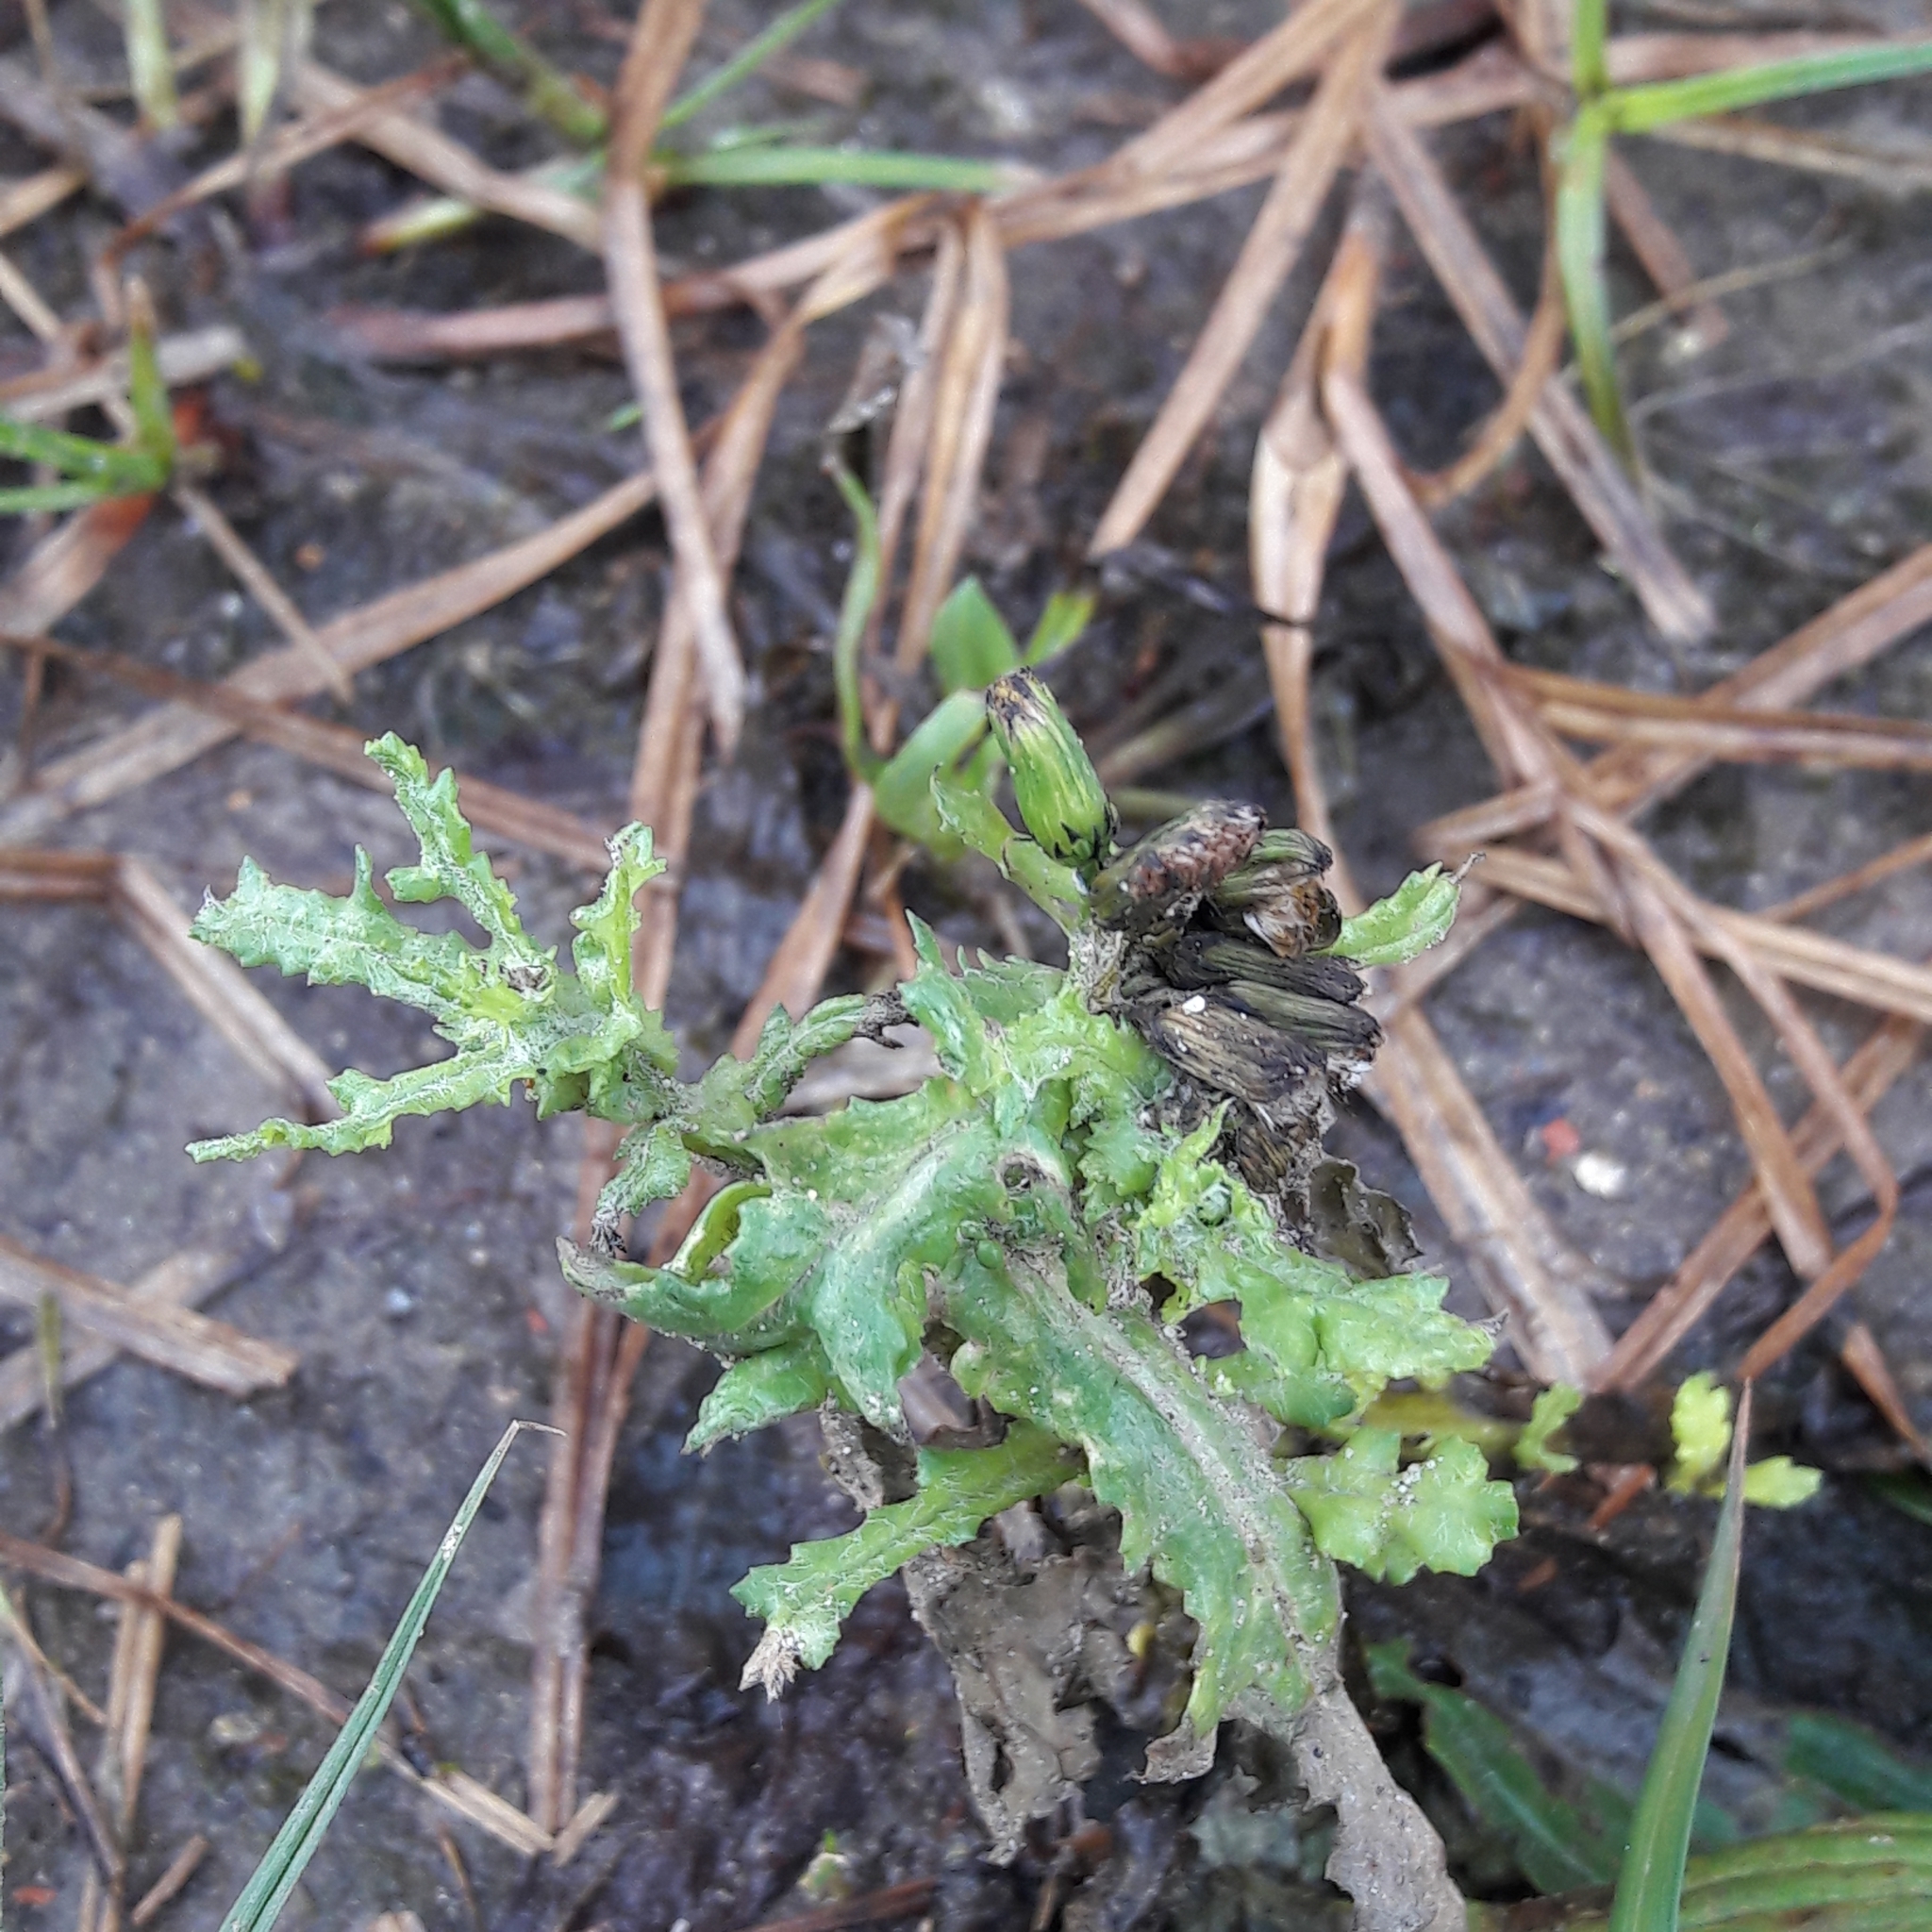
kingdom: Plantae
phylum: Tracheophyta
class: Magnoliopsida
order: Asterales
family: Asteraceae
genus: Senecio
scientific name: Senecio vulgaris
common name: Old-man-in-the-spring
